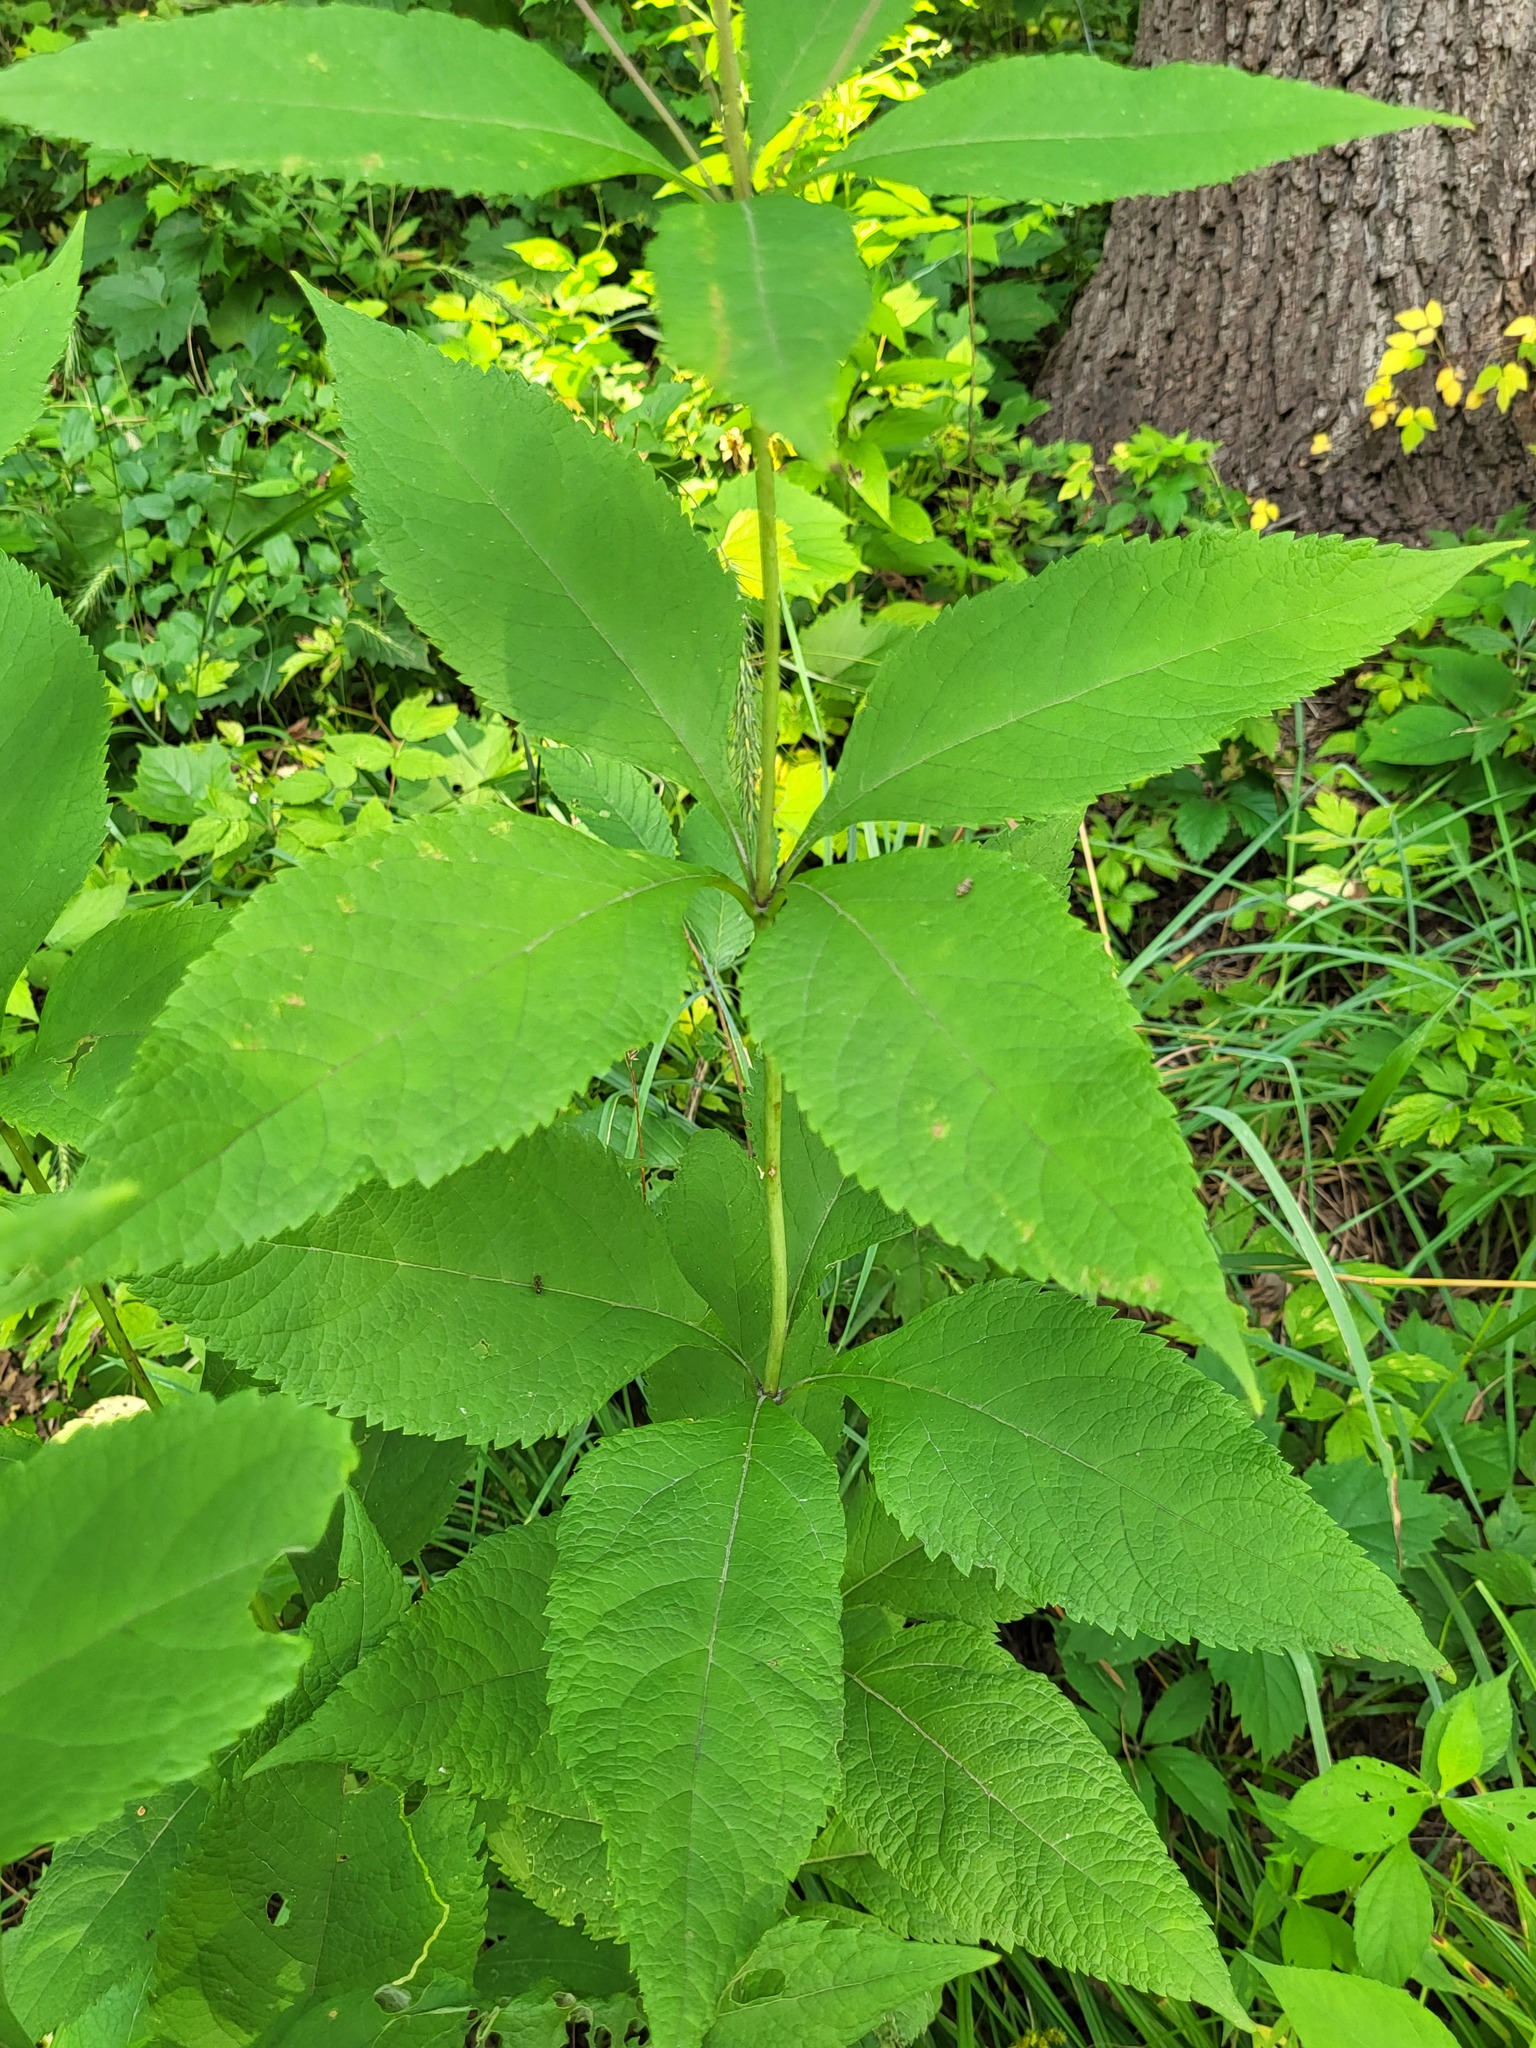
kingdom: Plantae
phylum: Tracheophyta
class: Magnoliopsida
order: Asterales
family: Asteraceae
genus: Eutrochium
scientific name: Eutrochium purpureum
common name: Gravelroot
